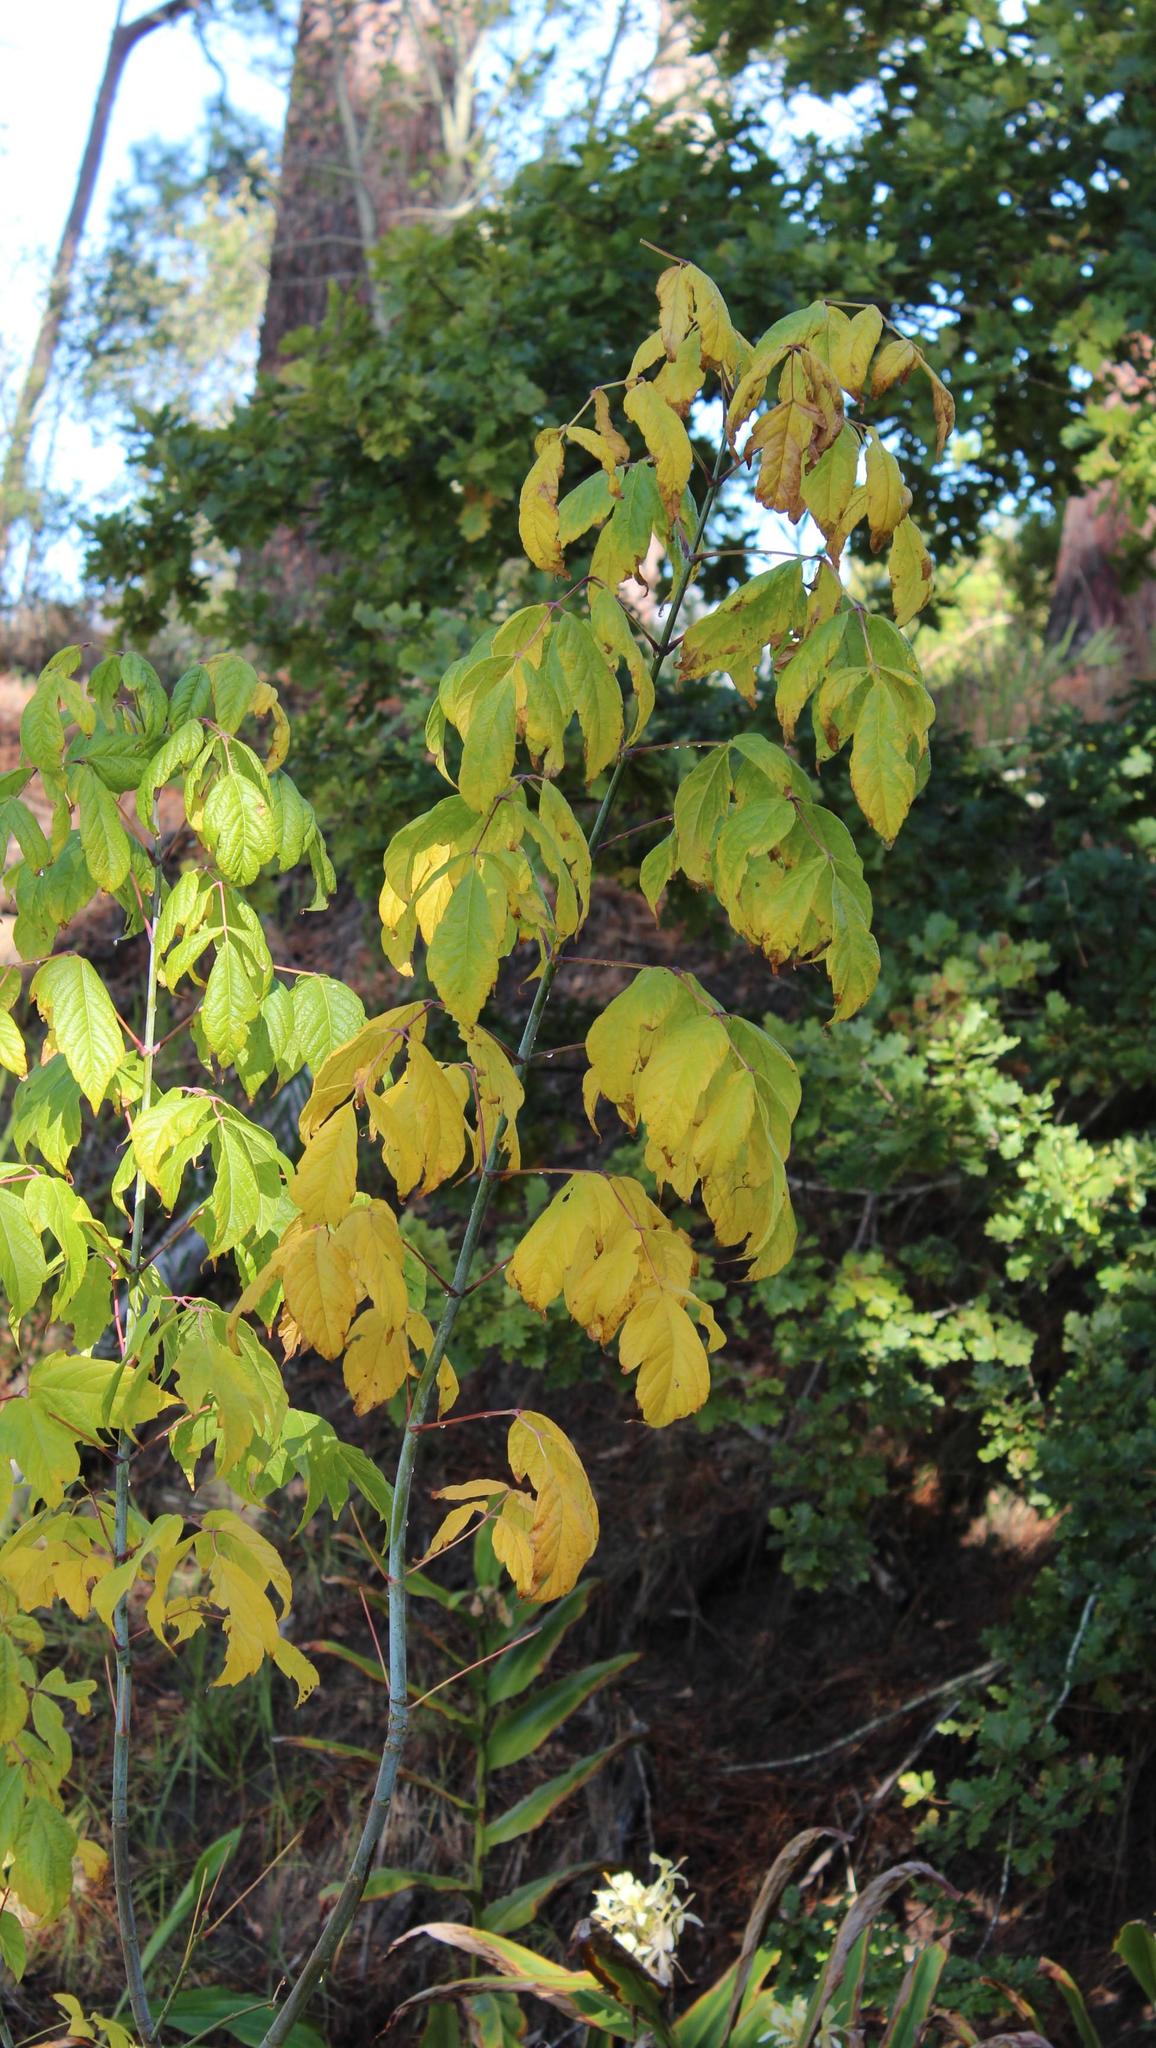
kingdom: Plantae
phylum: Tracheophyta
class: Magnoliopsida
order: Sapindales
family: Sapindaceae
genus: Acer
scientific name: Acer negundo
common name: Ashleaf maple
